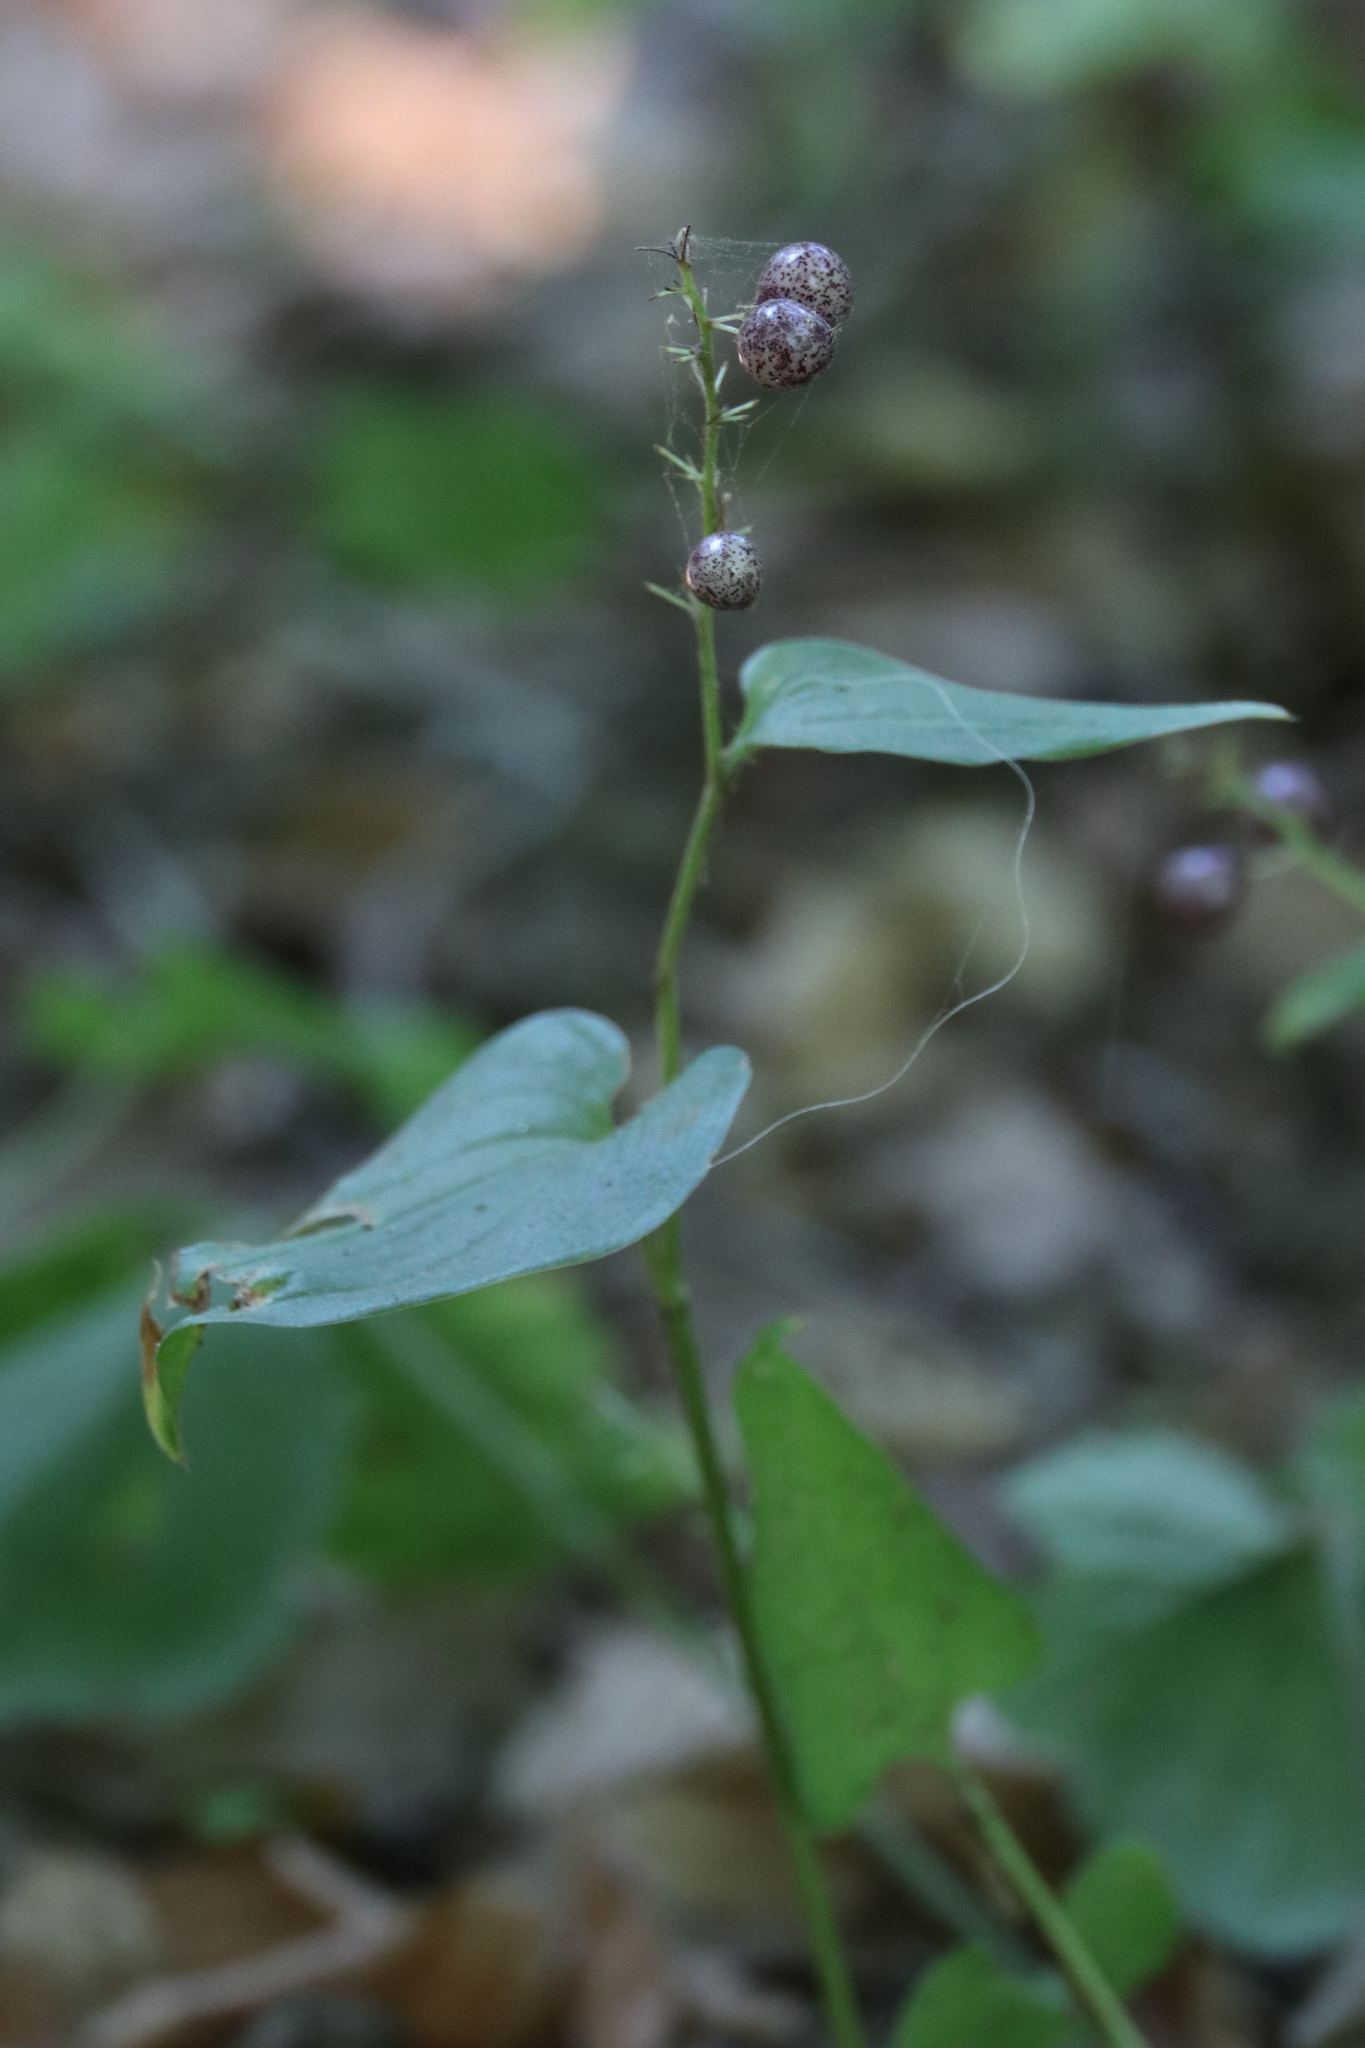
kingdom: Plantae
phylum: Tracheophyta
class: Liliopsida
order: Asparagales
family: Asparagaceae
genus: Maianthemum
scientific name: Maianthemum bifolium
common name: May lily
